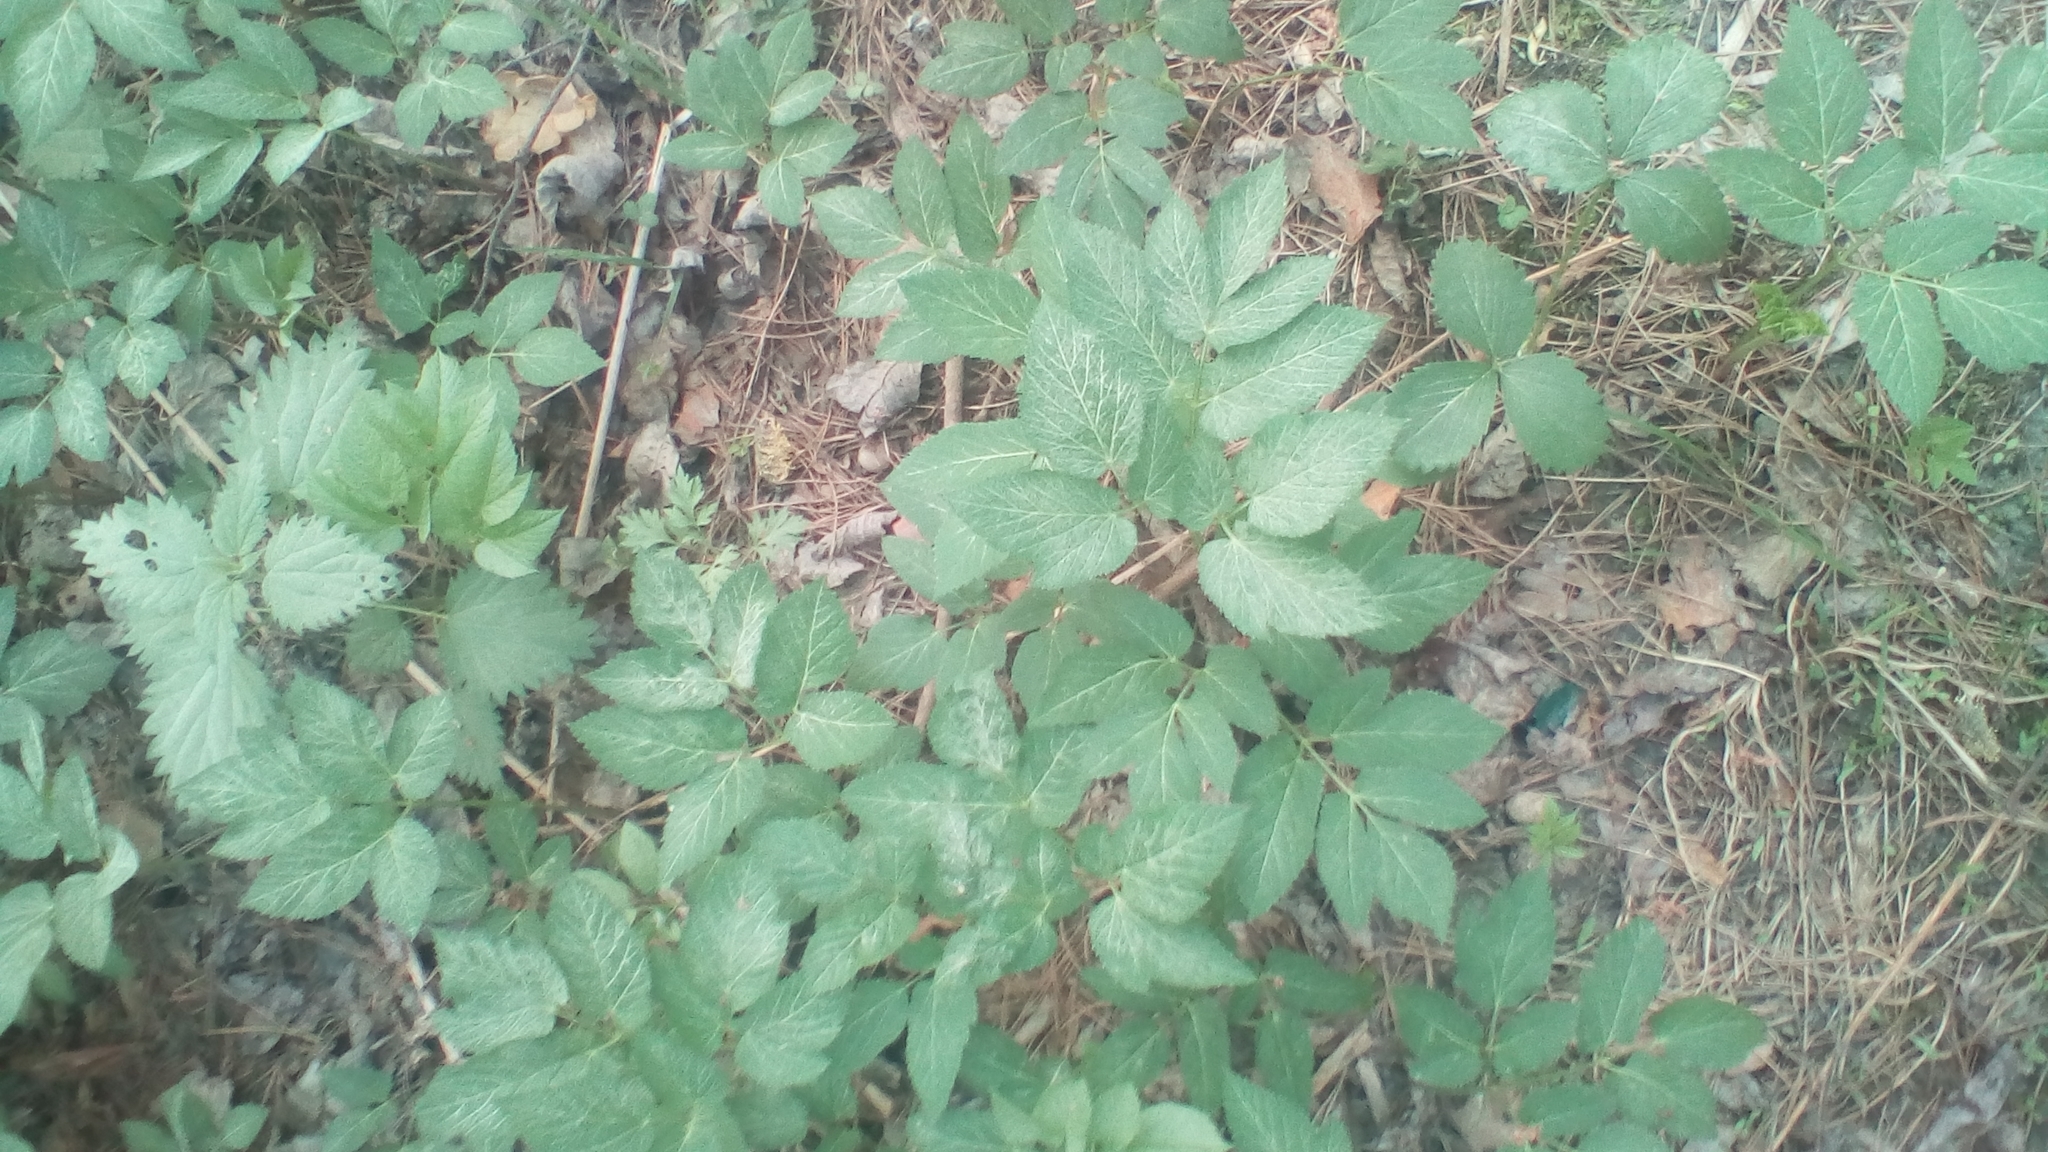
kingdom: Plantae
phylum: Tracheophyta
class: Magnoliopsida
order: Apiales
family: Apiaceae
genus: Aegopodium
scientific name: Aegopodium podagraria
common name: Ground-elder
